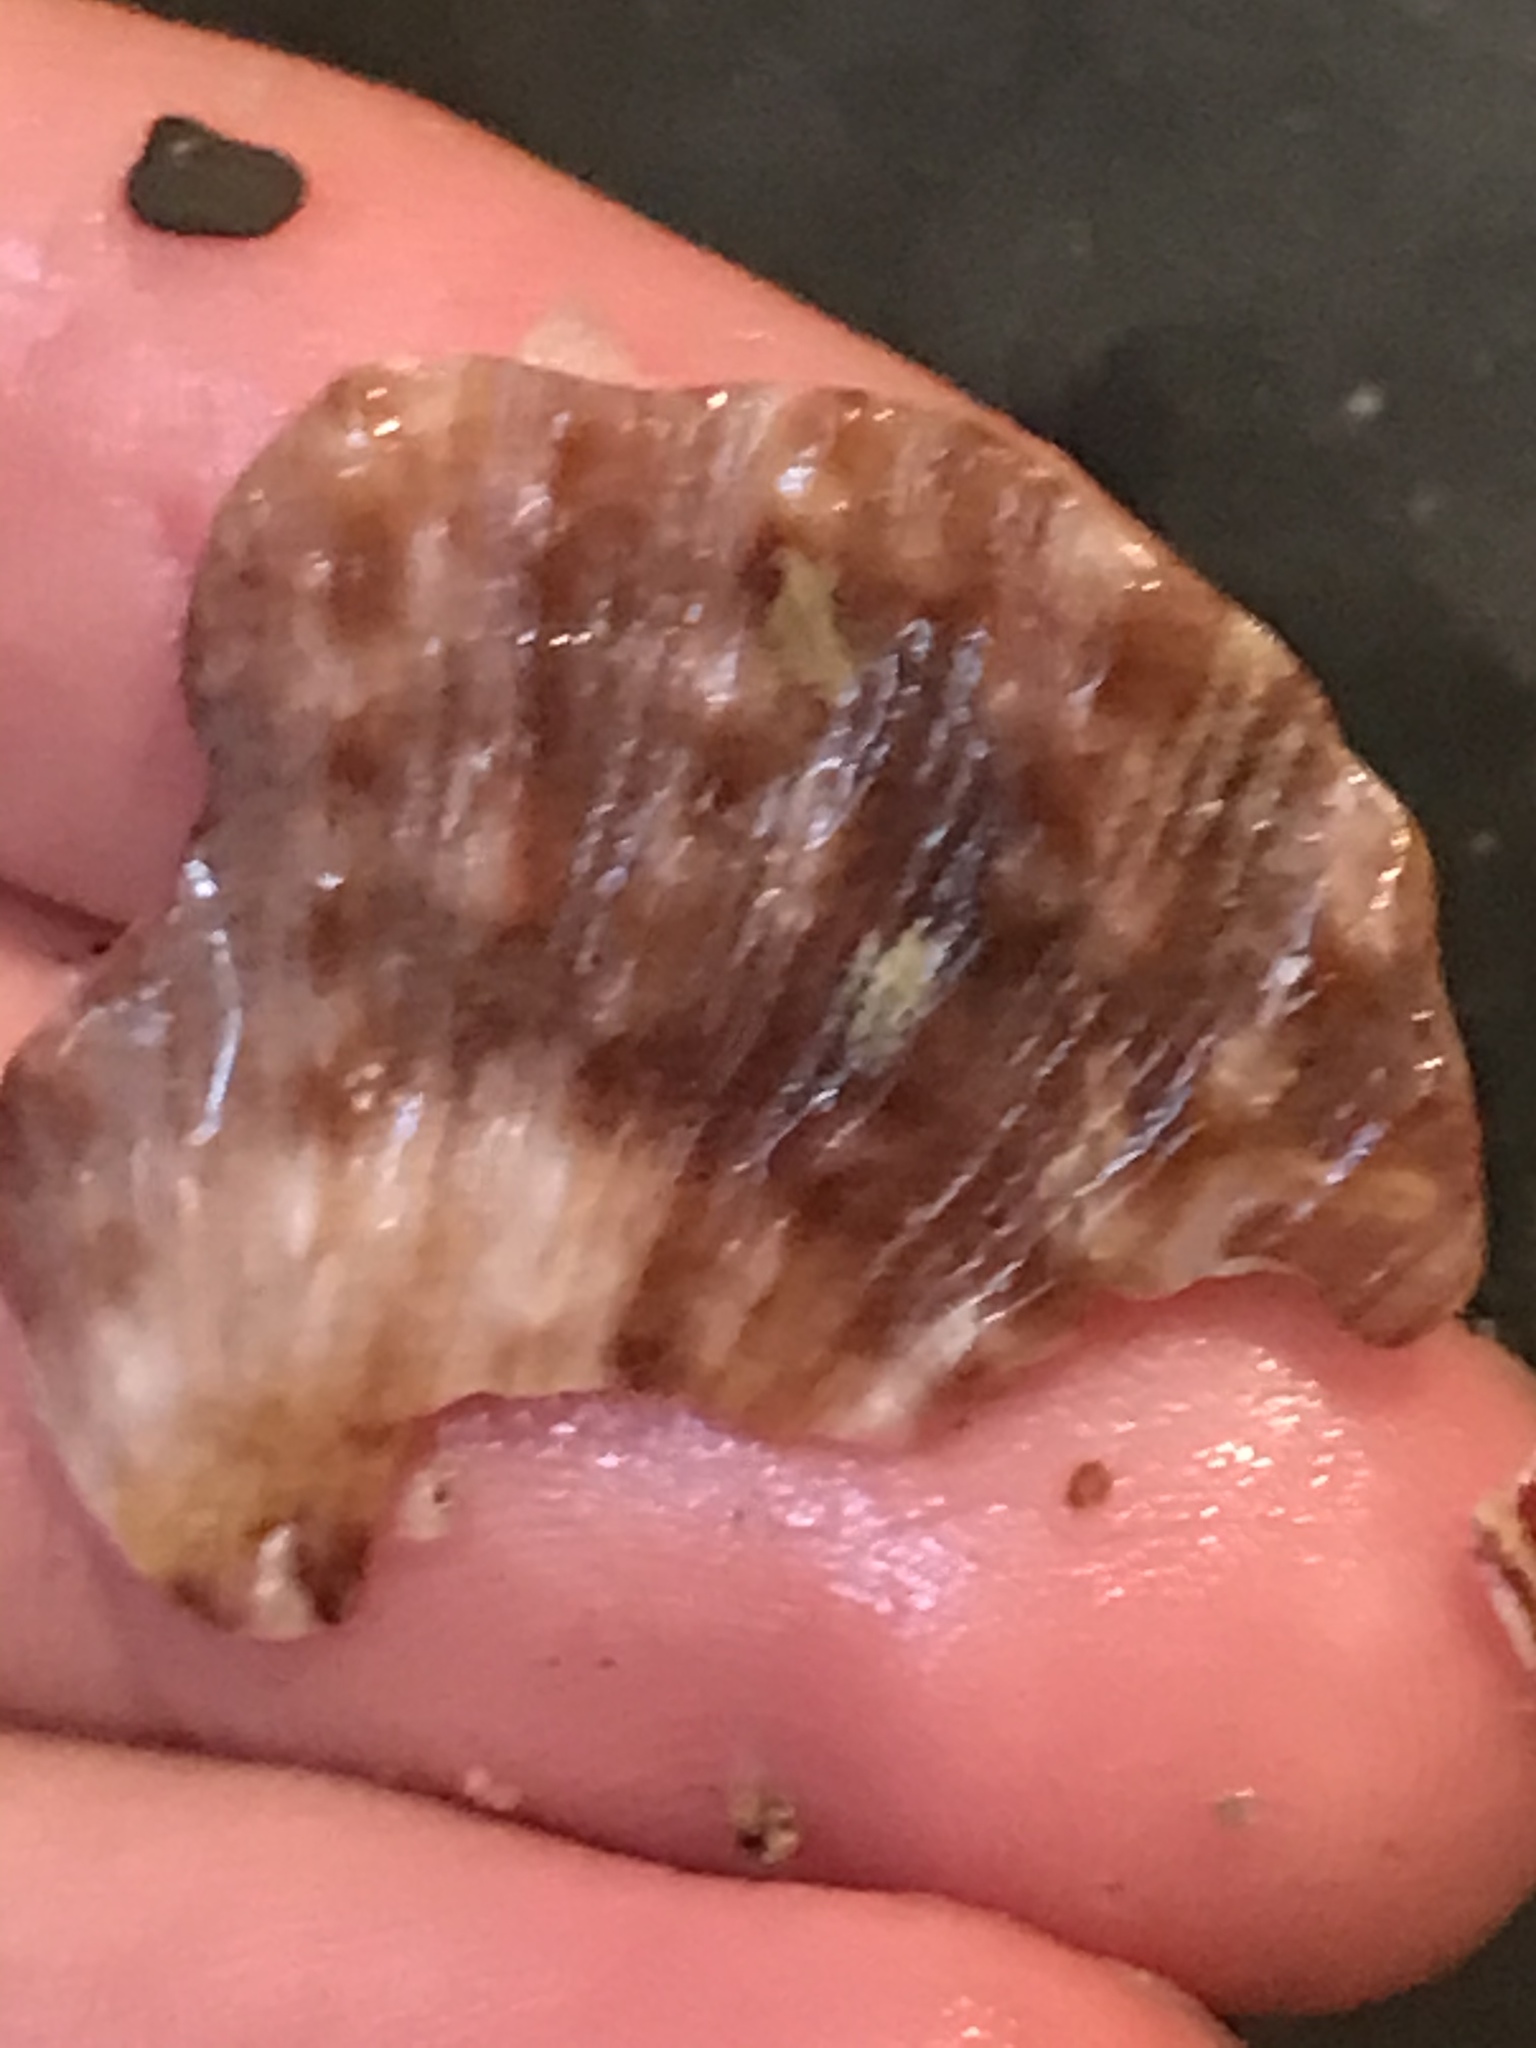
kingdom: Animalia
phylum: Mollusca
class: Bivalvia
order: Pectinida
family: Pectinidae
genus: Crassadoma
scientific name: Crassadoma gigantea
